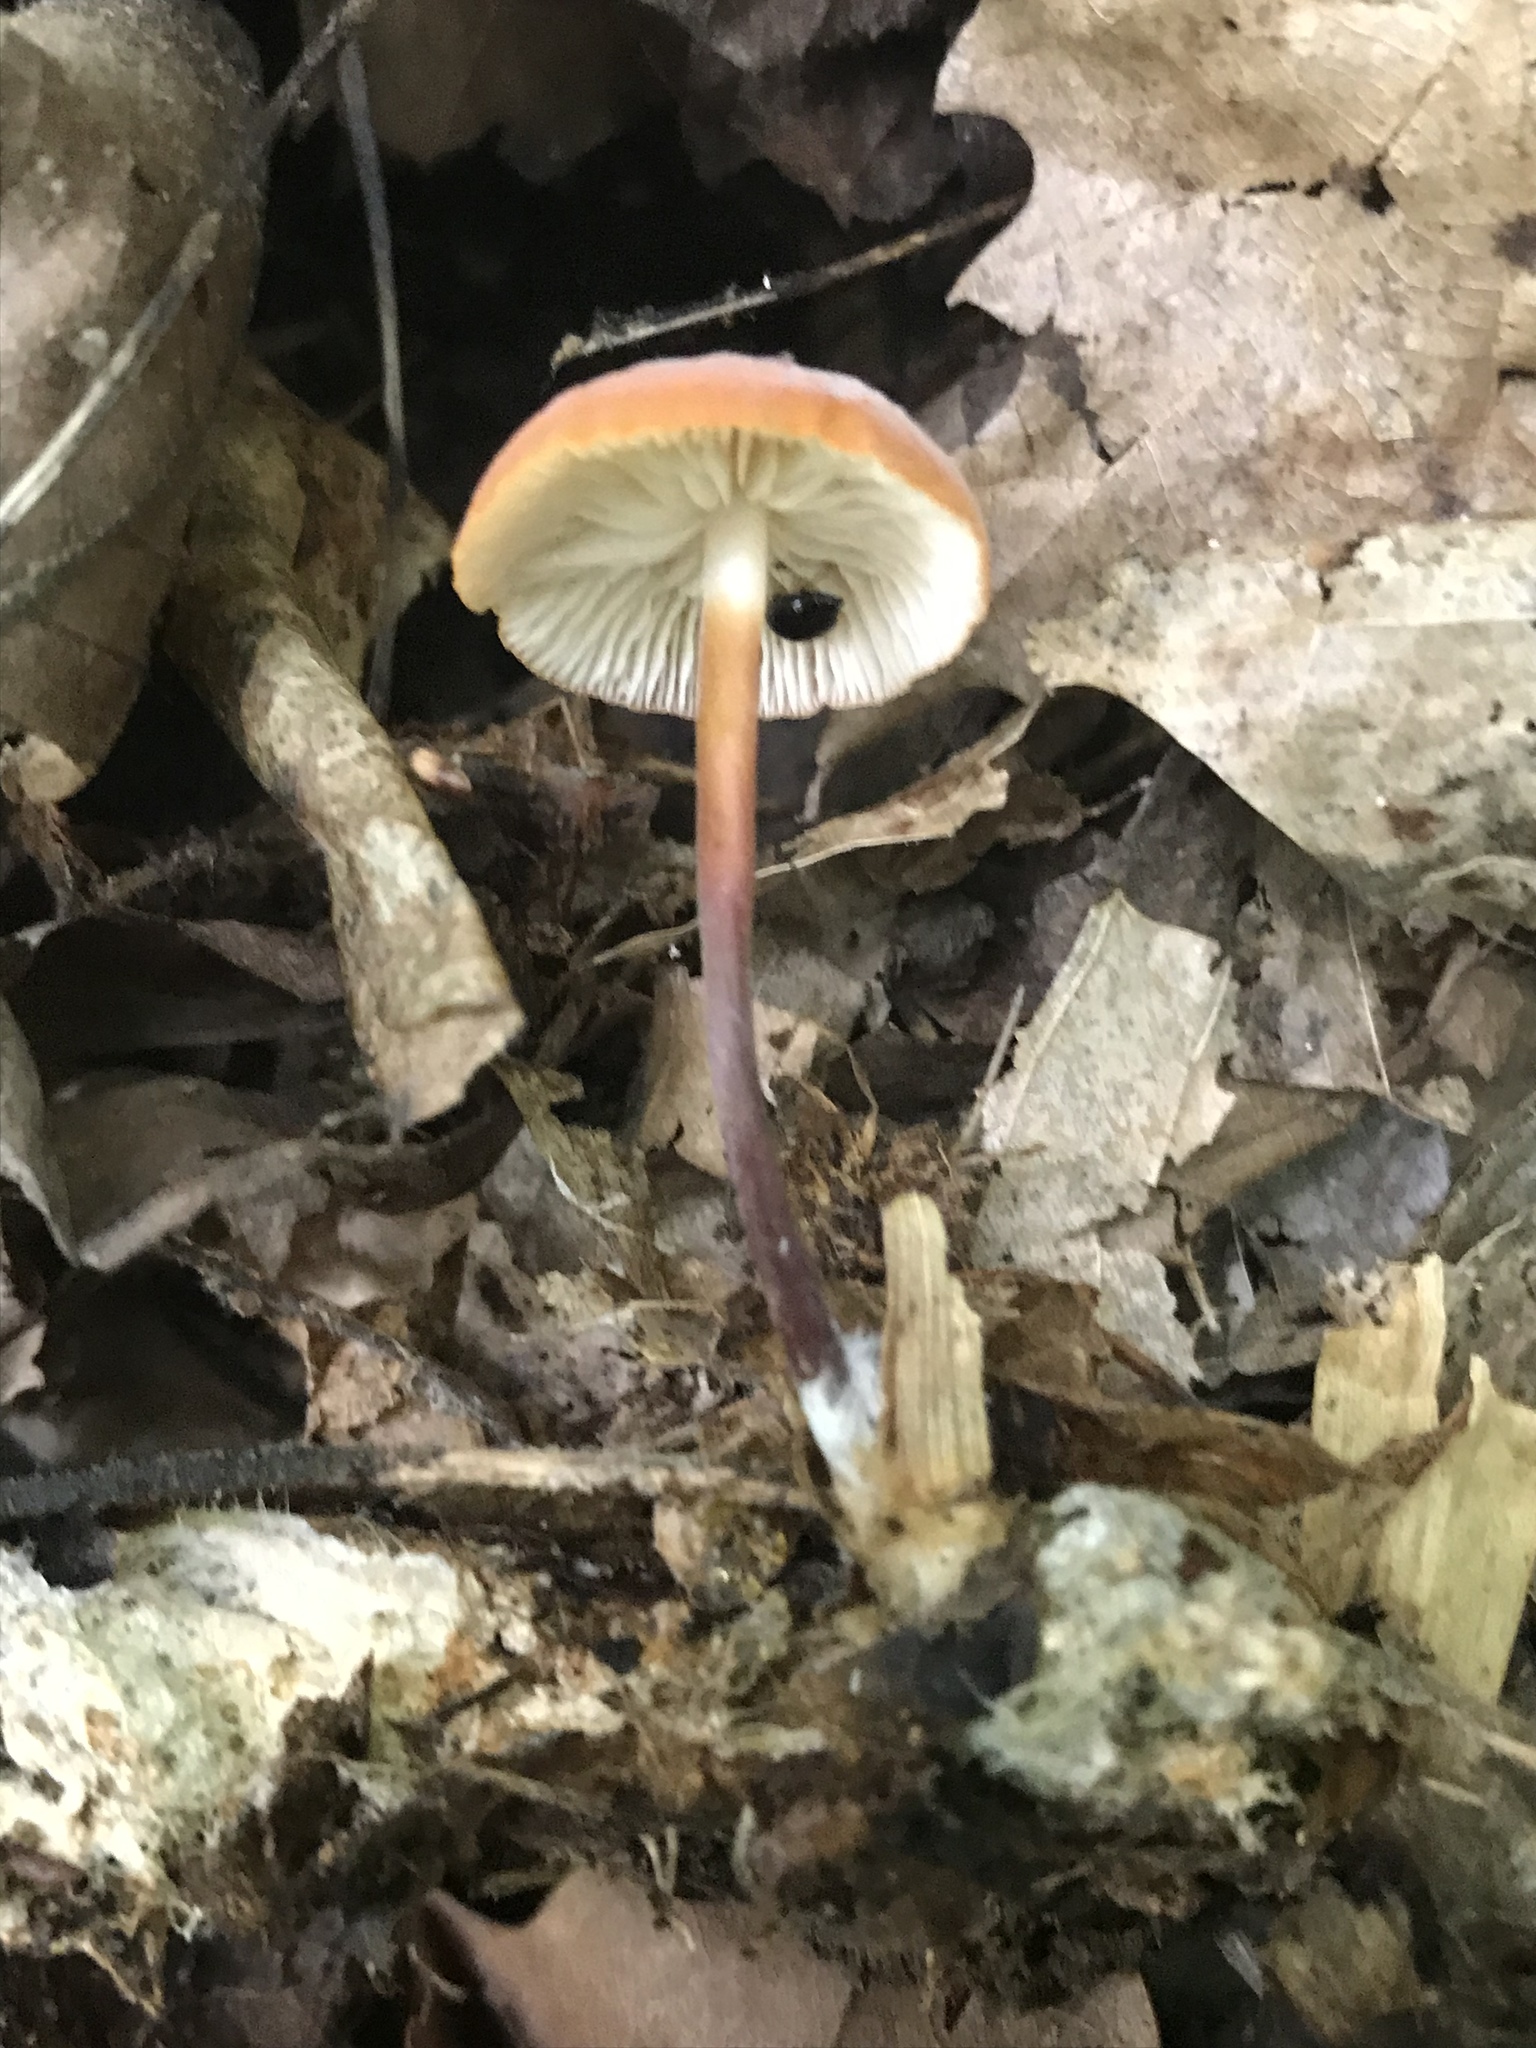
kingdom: Fungi
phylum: Basidiomycota
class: Agaricomycetes
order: Agaricales
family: Marasmiaceae
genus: Marasmius
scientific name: Marasmius sullivantii
